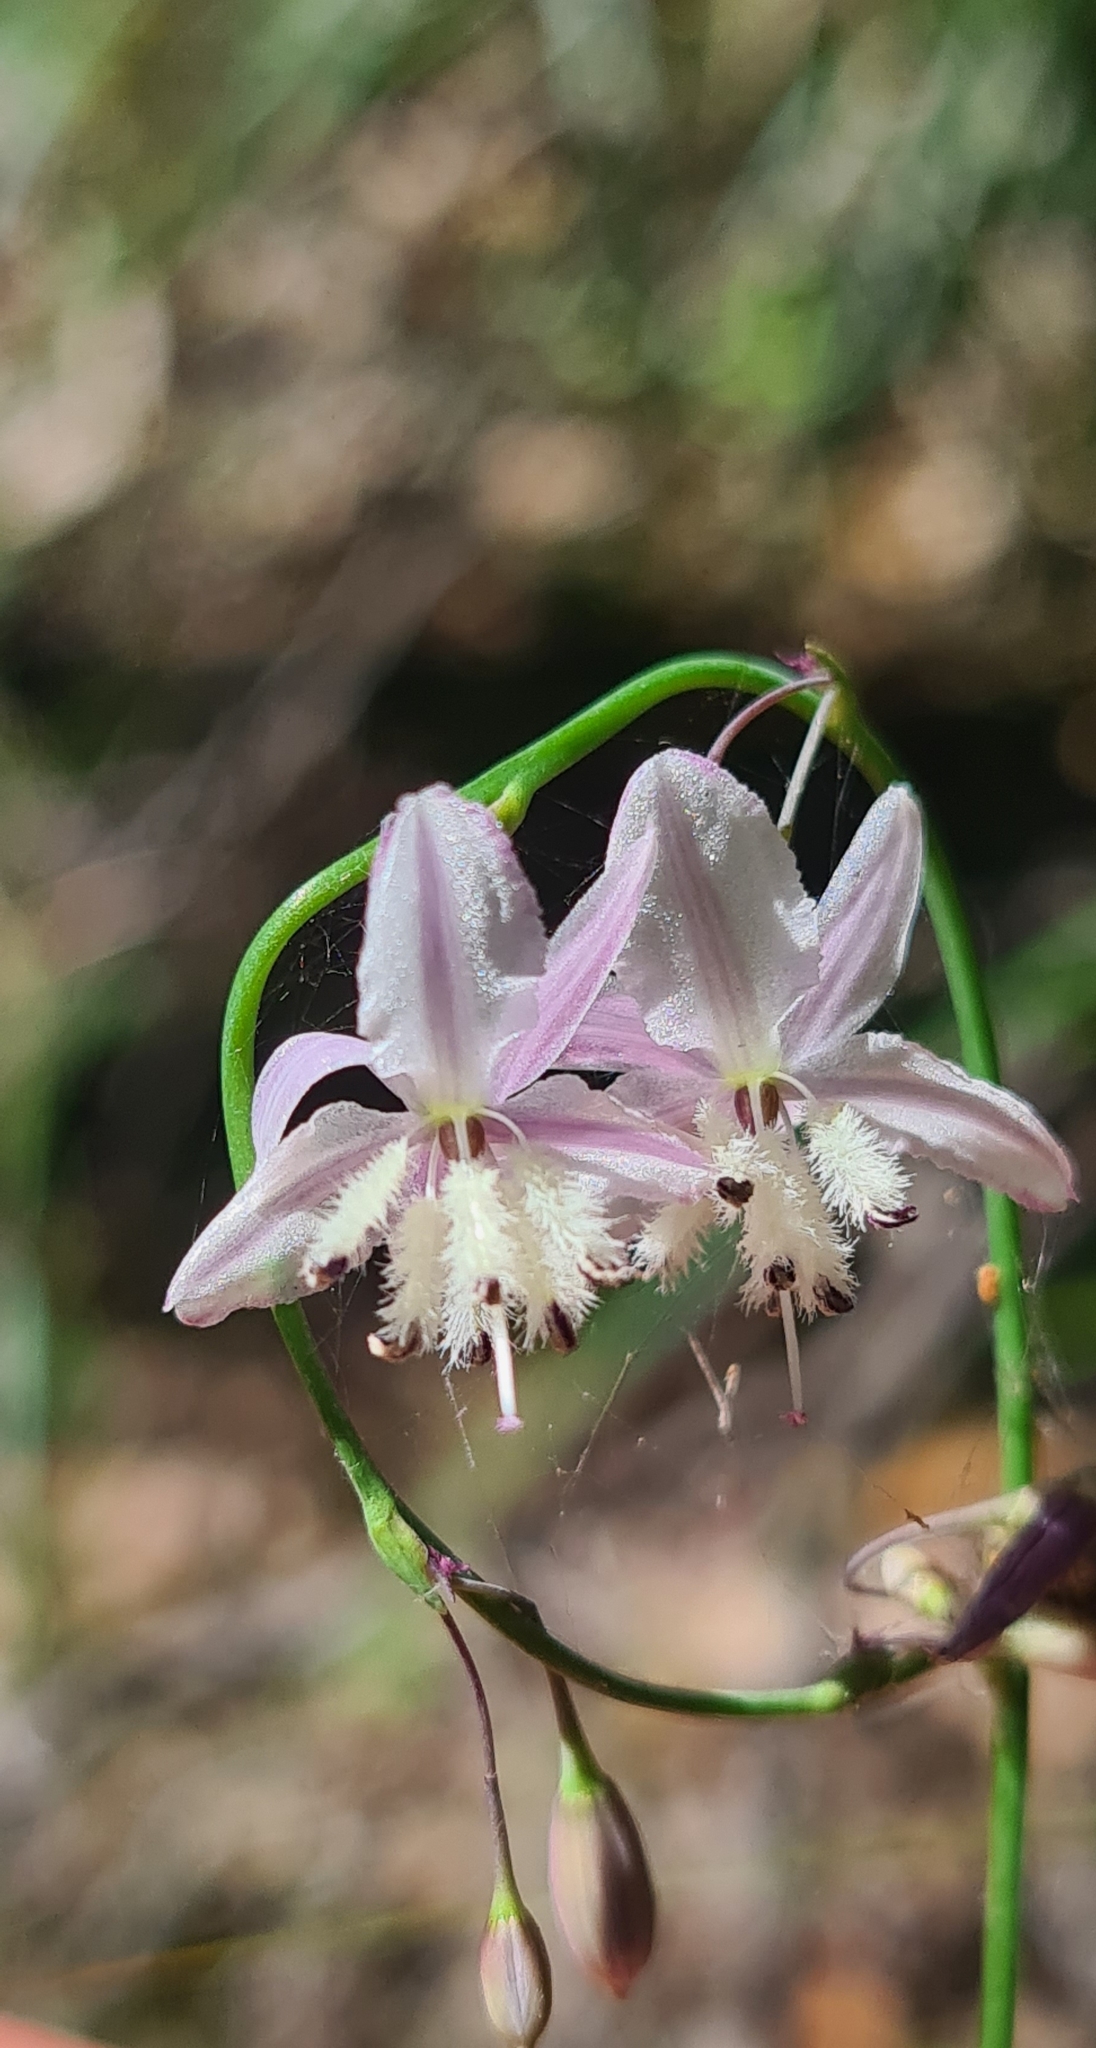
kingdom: Plantae
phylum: Tracheophyta
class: Liliopsida
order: Asparagales
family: Asparagaceae
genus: Arthropodium
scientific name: Arthropodium milleflorum
